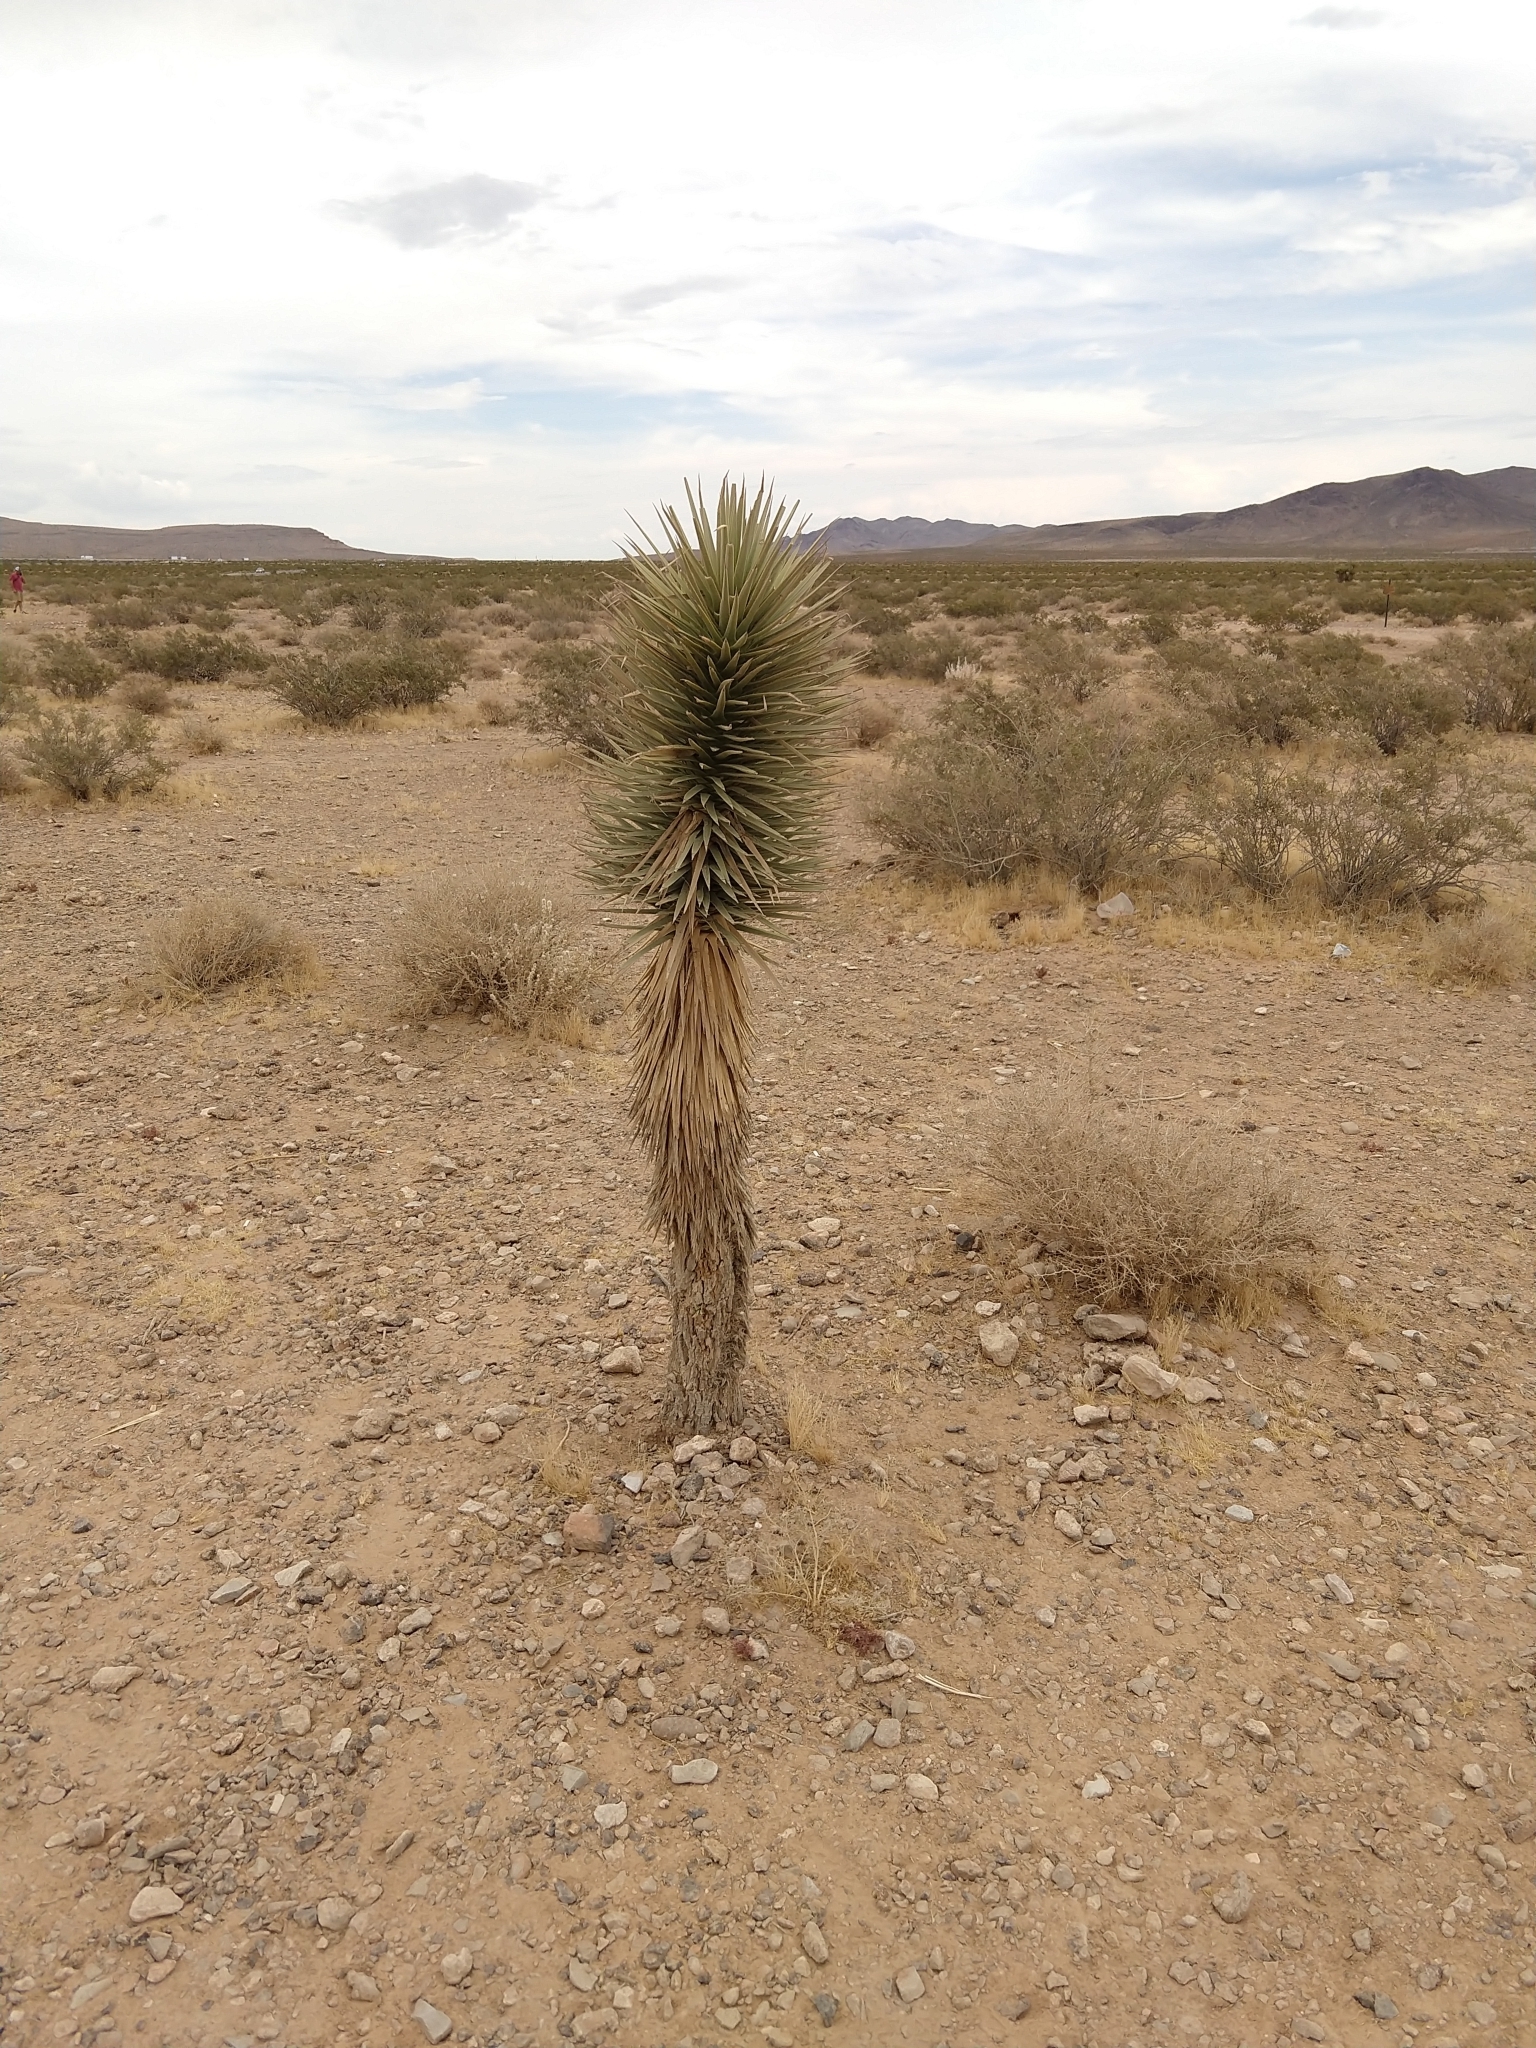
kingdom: Plantae
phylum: Tracheophyta
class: Liliopsida
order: Asparagales
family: Asparagaceae
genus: Yucca
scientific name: Yucca brevifolia
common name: Joshua tree
